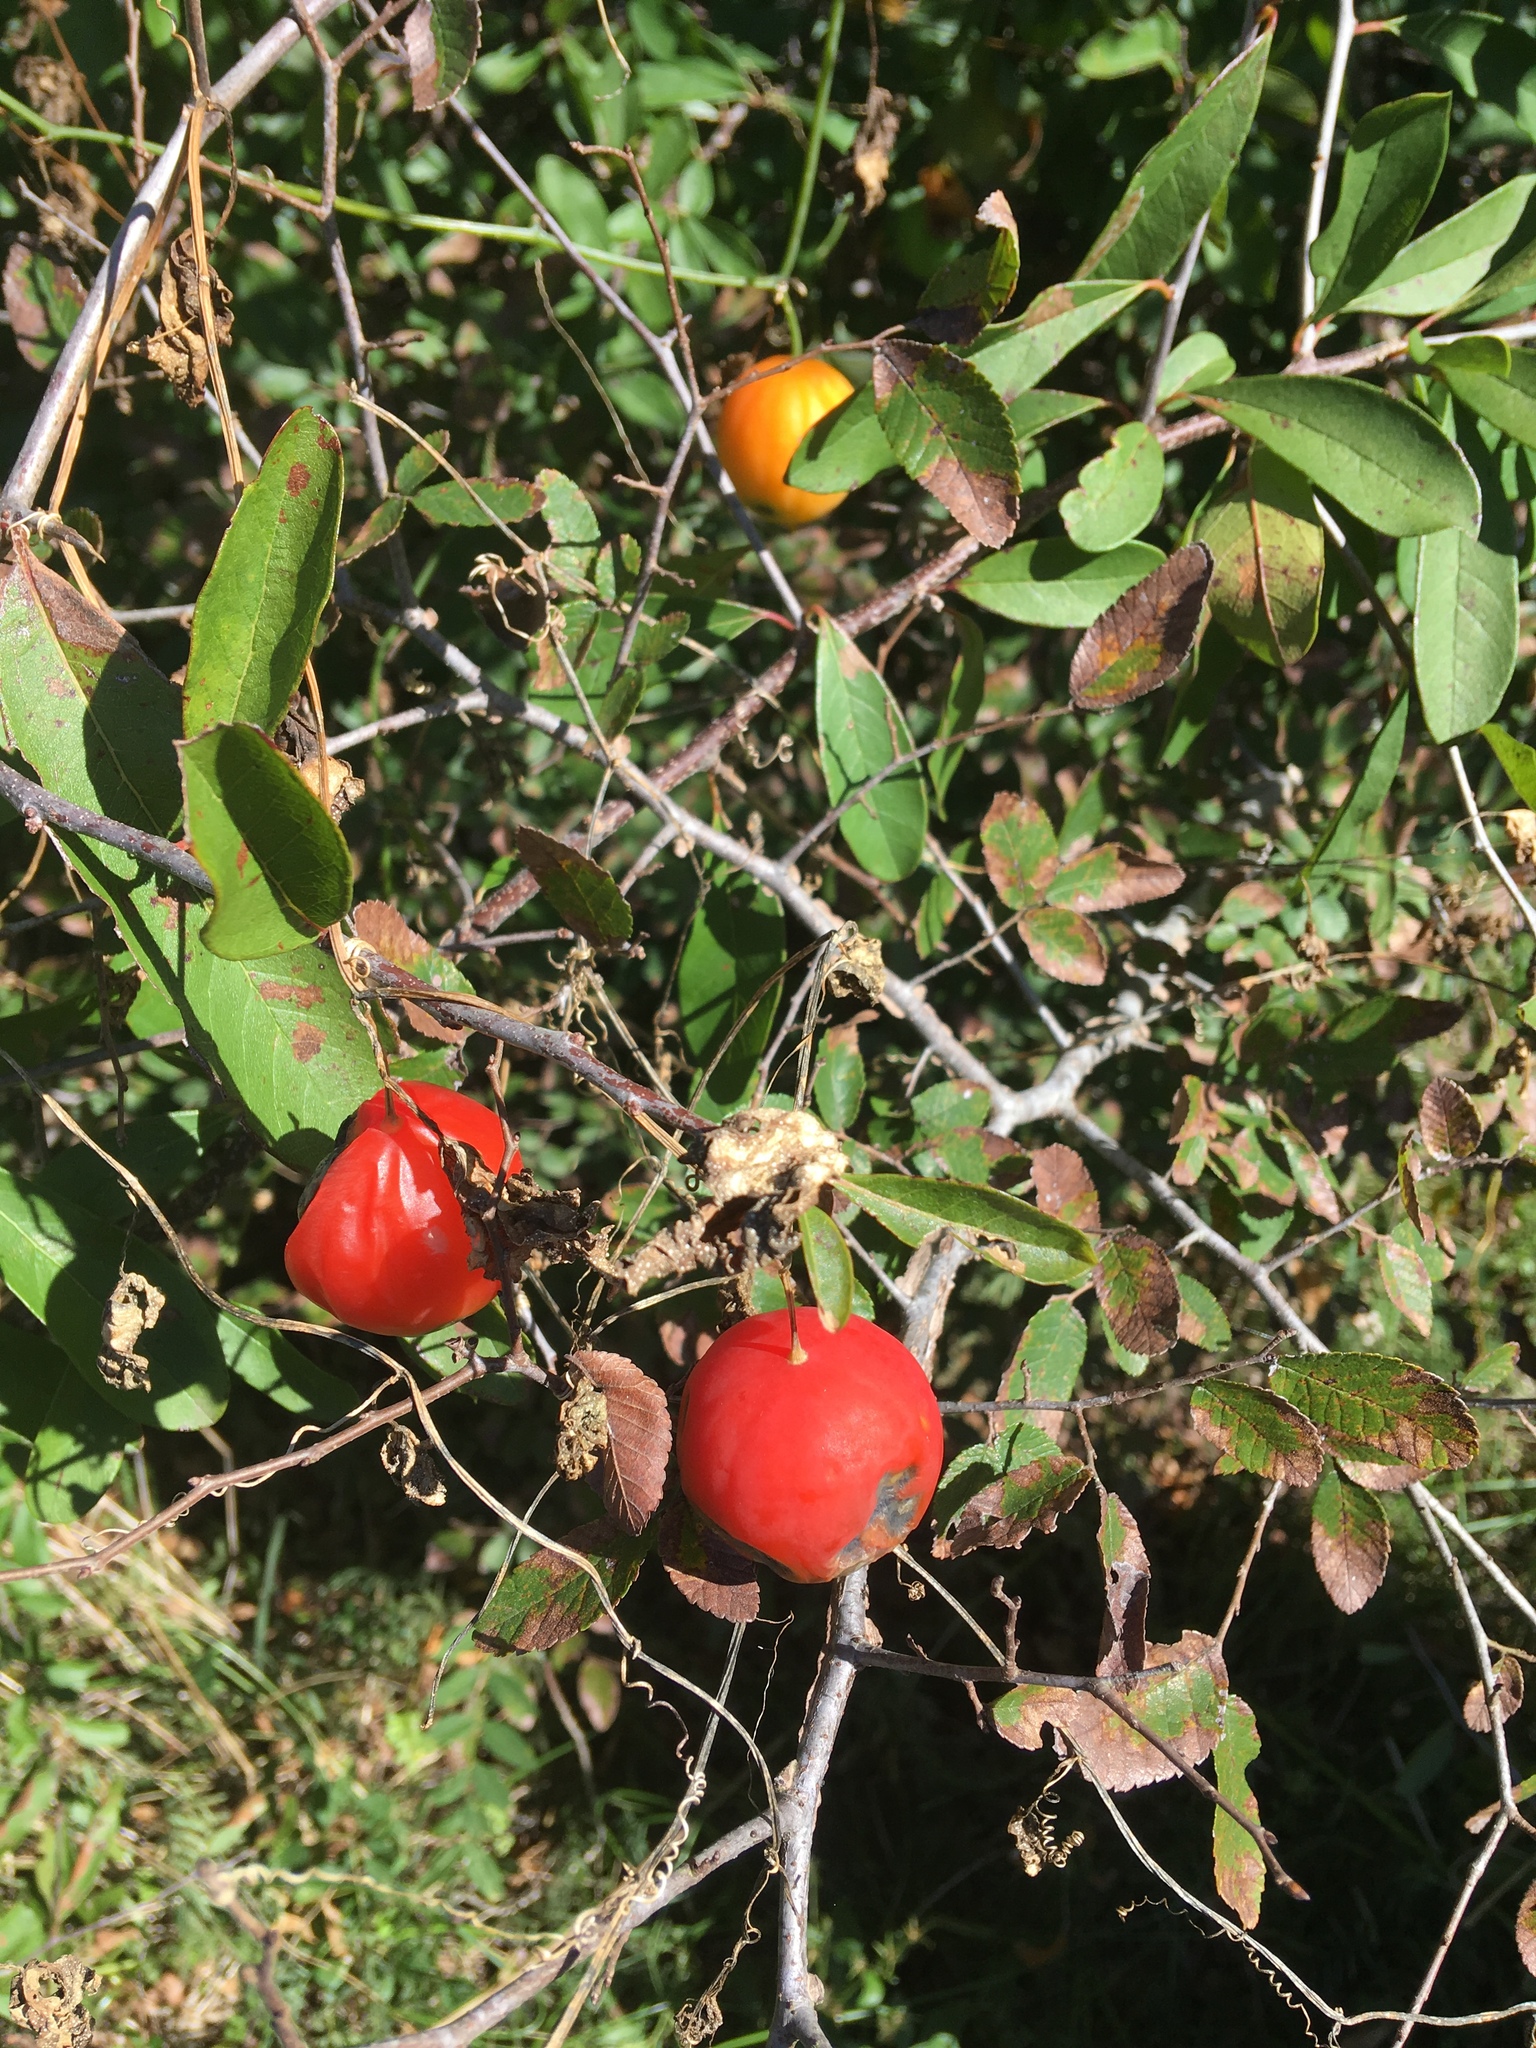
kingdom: Plantae
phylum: Tracheophyta
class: Magnoliopsida
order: Cucurbitales
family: Cucurbitaceae
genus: Ibervillea
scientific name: Ibervillea lindheimeri
